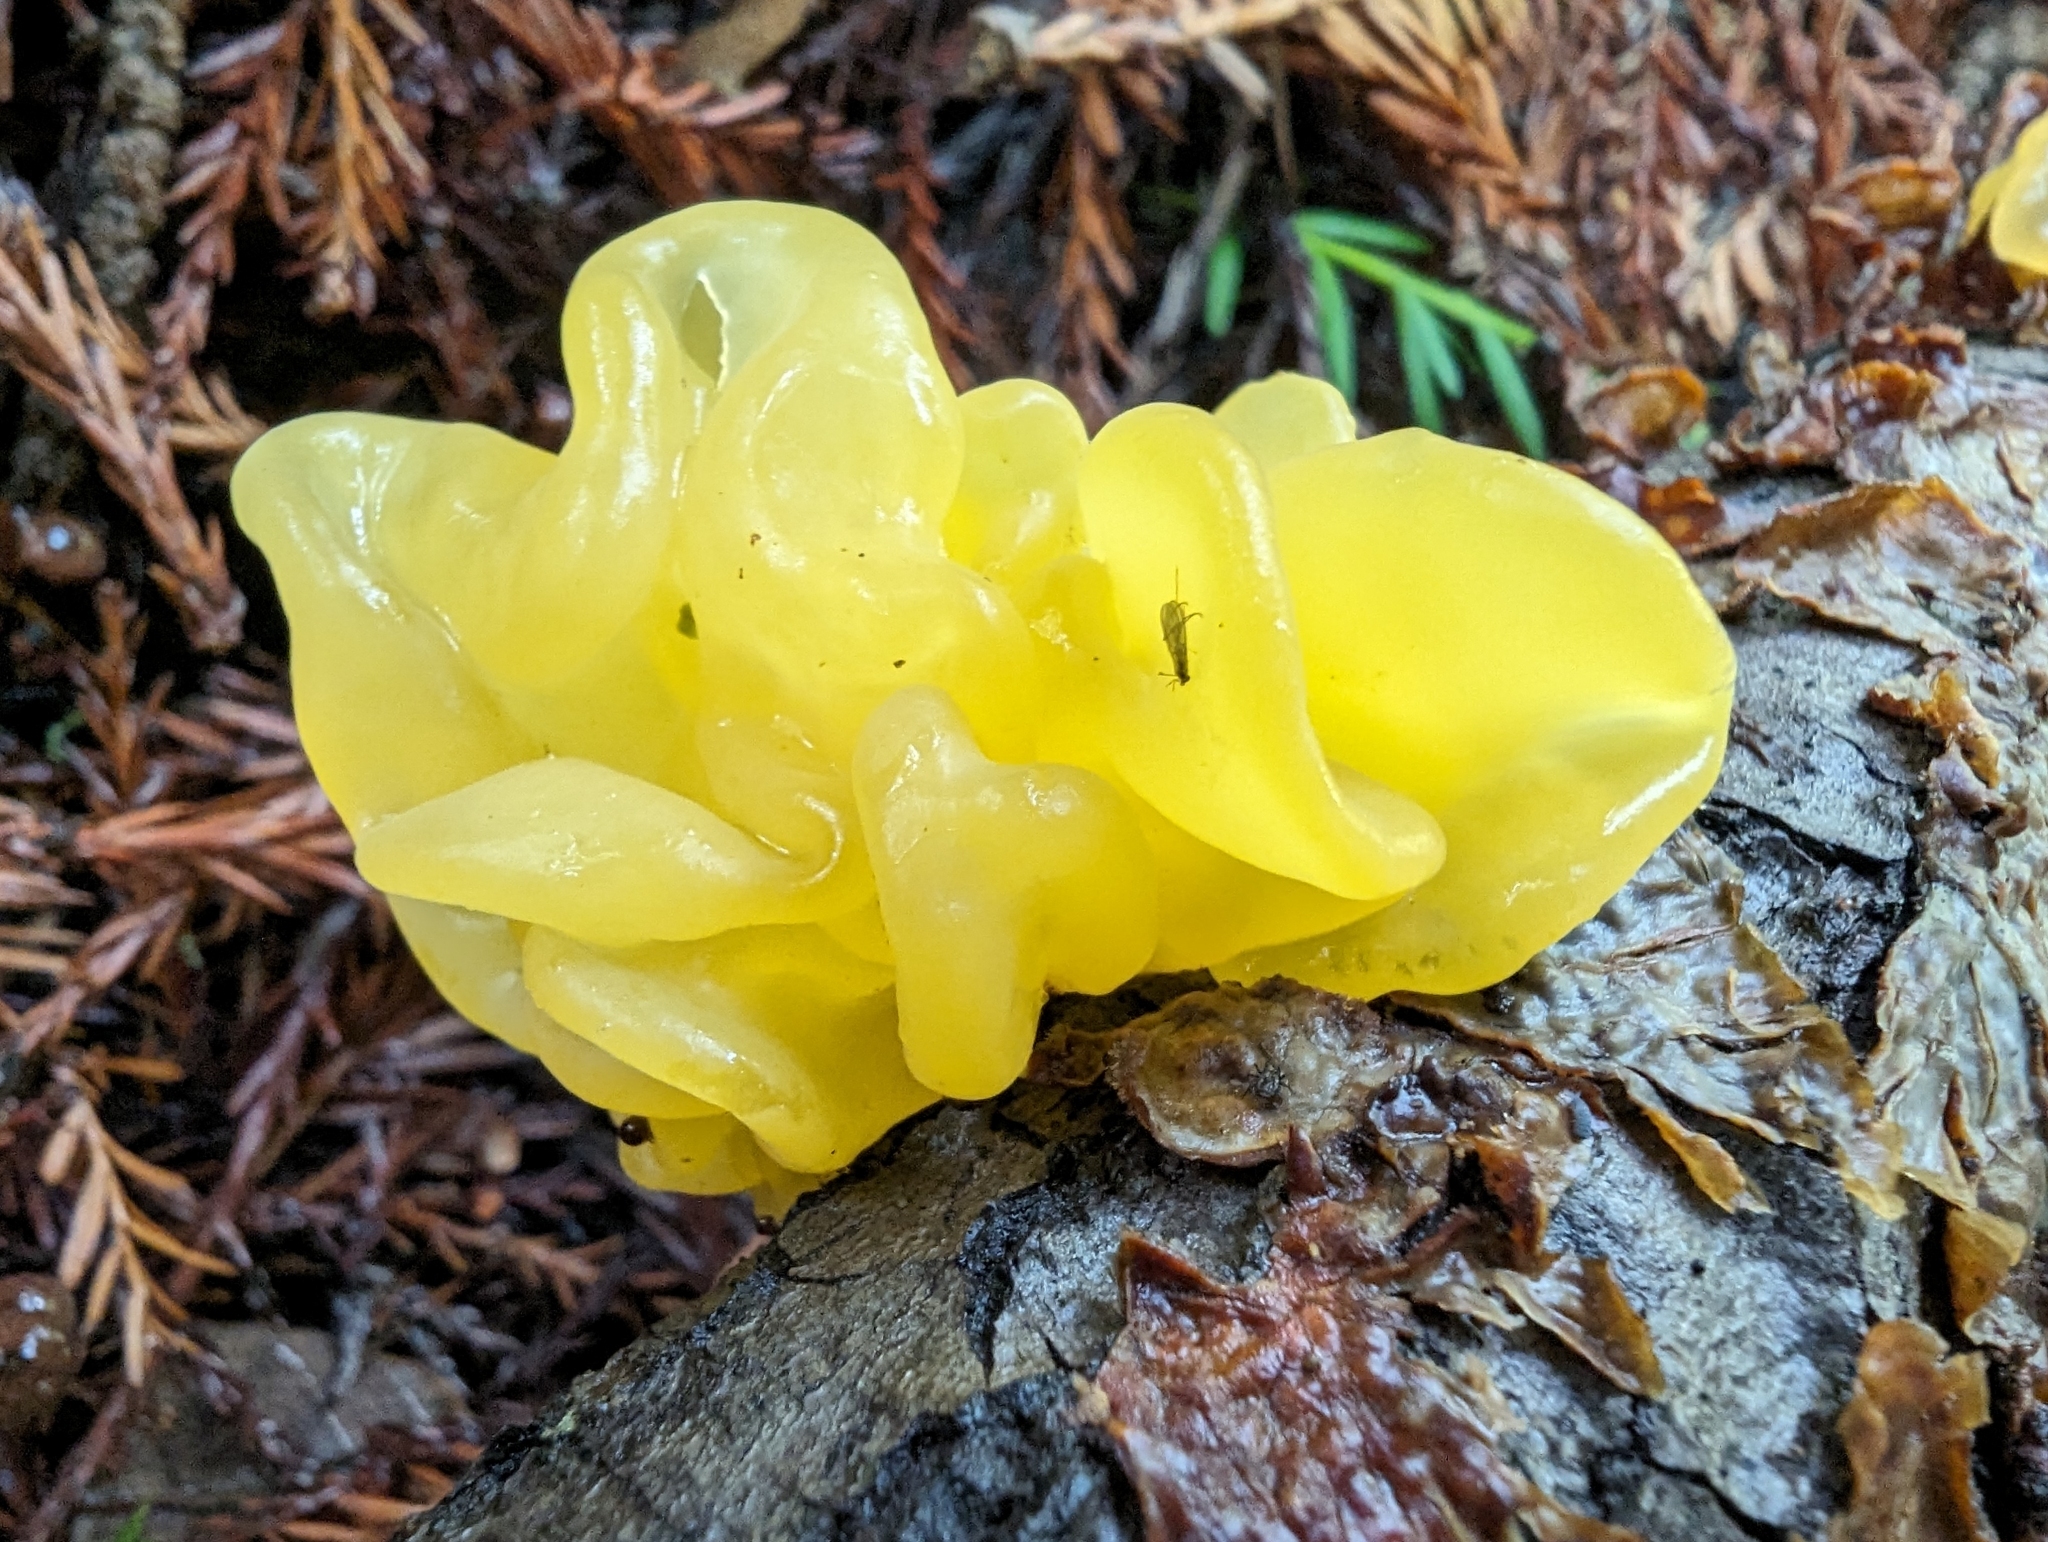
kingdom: Fungi
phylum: Basidiomycota
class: Tremellomycetes
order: Tremellales
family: Naemateliaceae
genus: Naematelia
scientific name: Naematelia aurantia
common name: Golden ear
